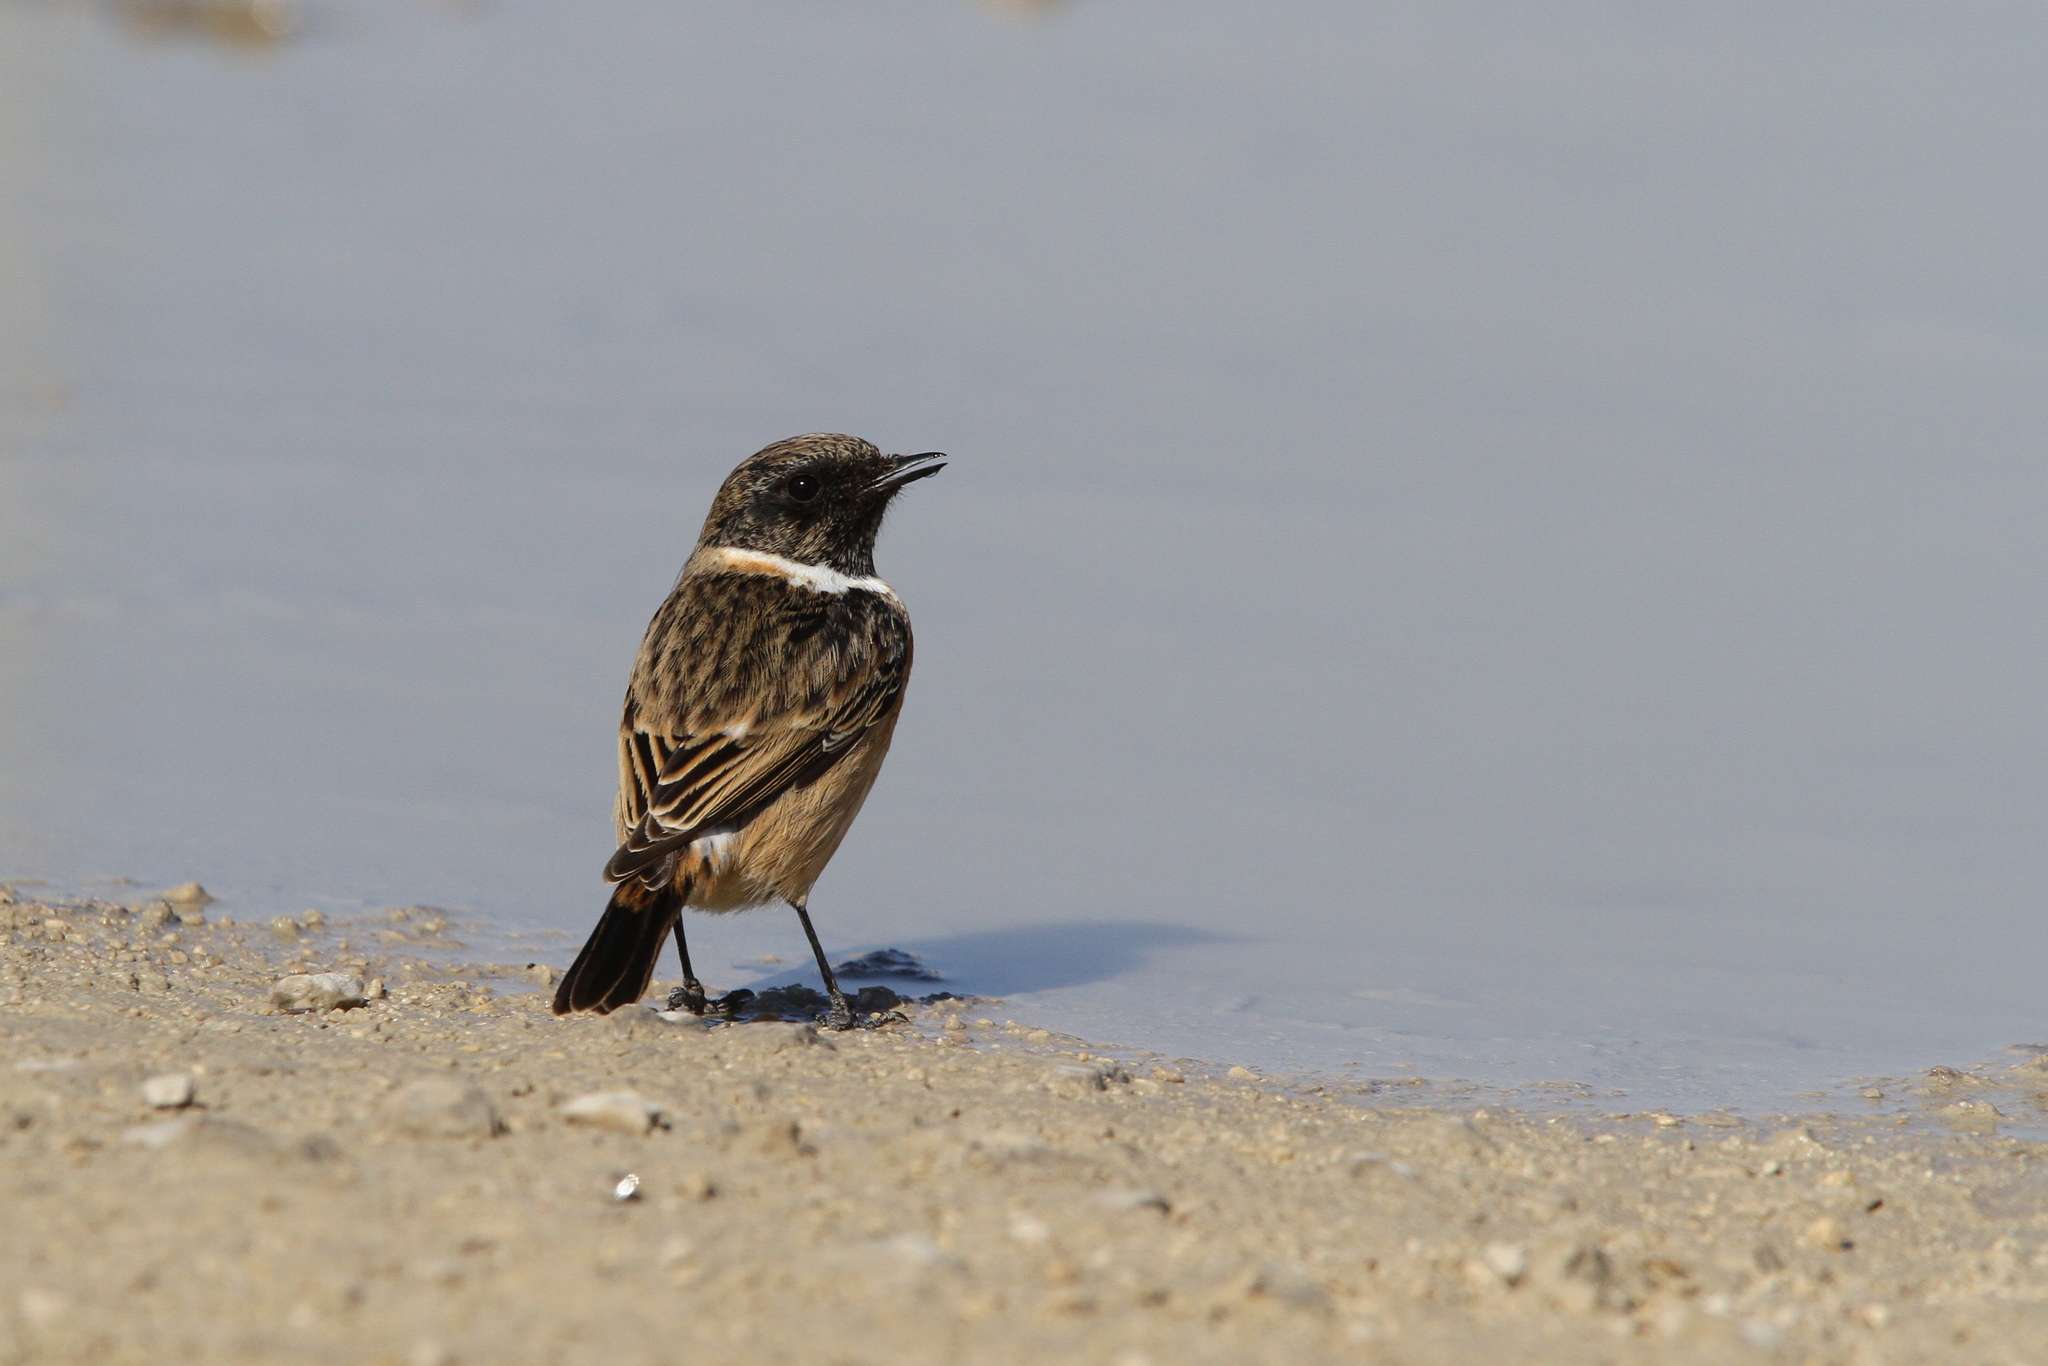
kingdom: Animalia
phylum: Chordata
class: Aves
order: Passeriformes
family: Muscicapidae
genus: Saxicola
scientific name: Saxicola rubicola
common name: European stonechat
